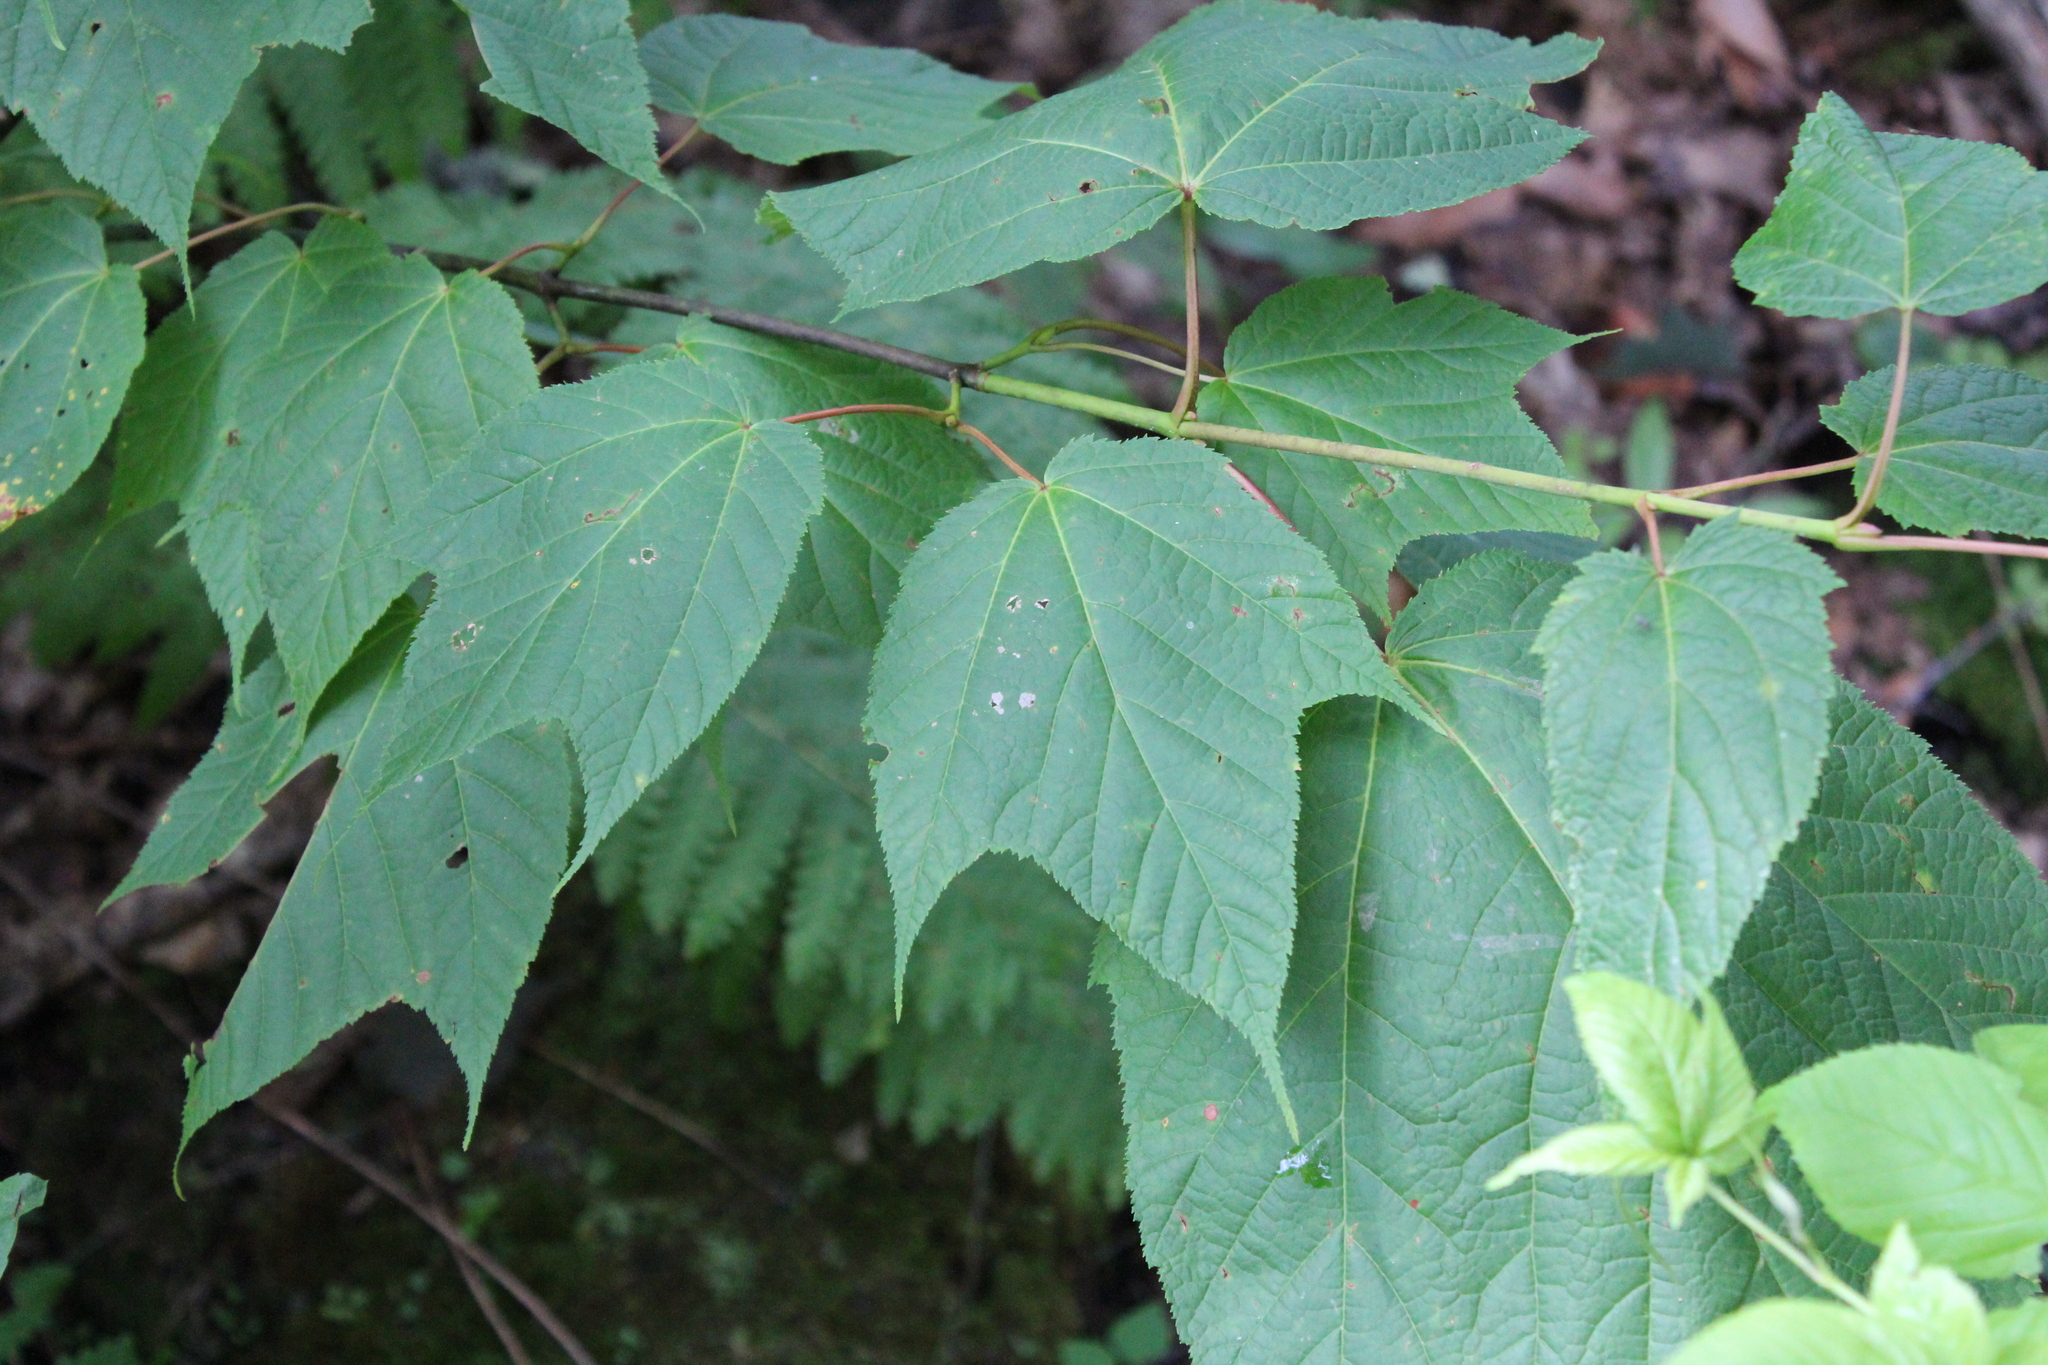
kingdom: Plantae
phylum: Tracheophyta
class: Magnoliopsida
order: Sapindales
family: Sapindaceae
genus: Acer
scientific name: Acer pensylvanicum
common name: Moosewood
